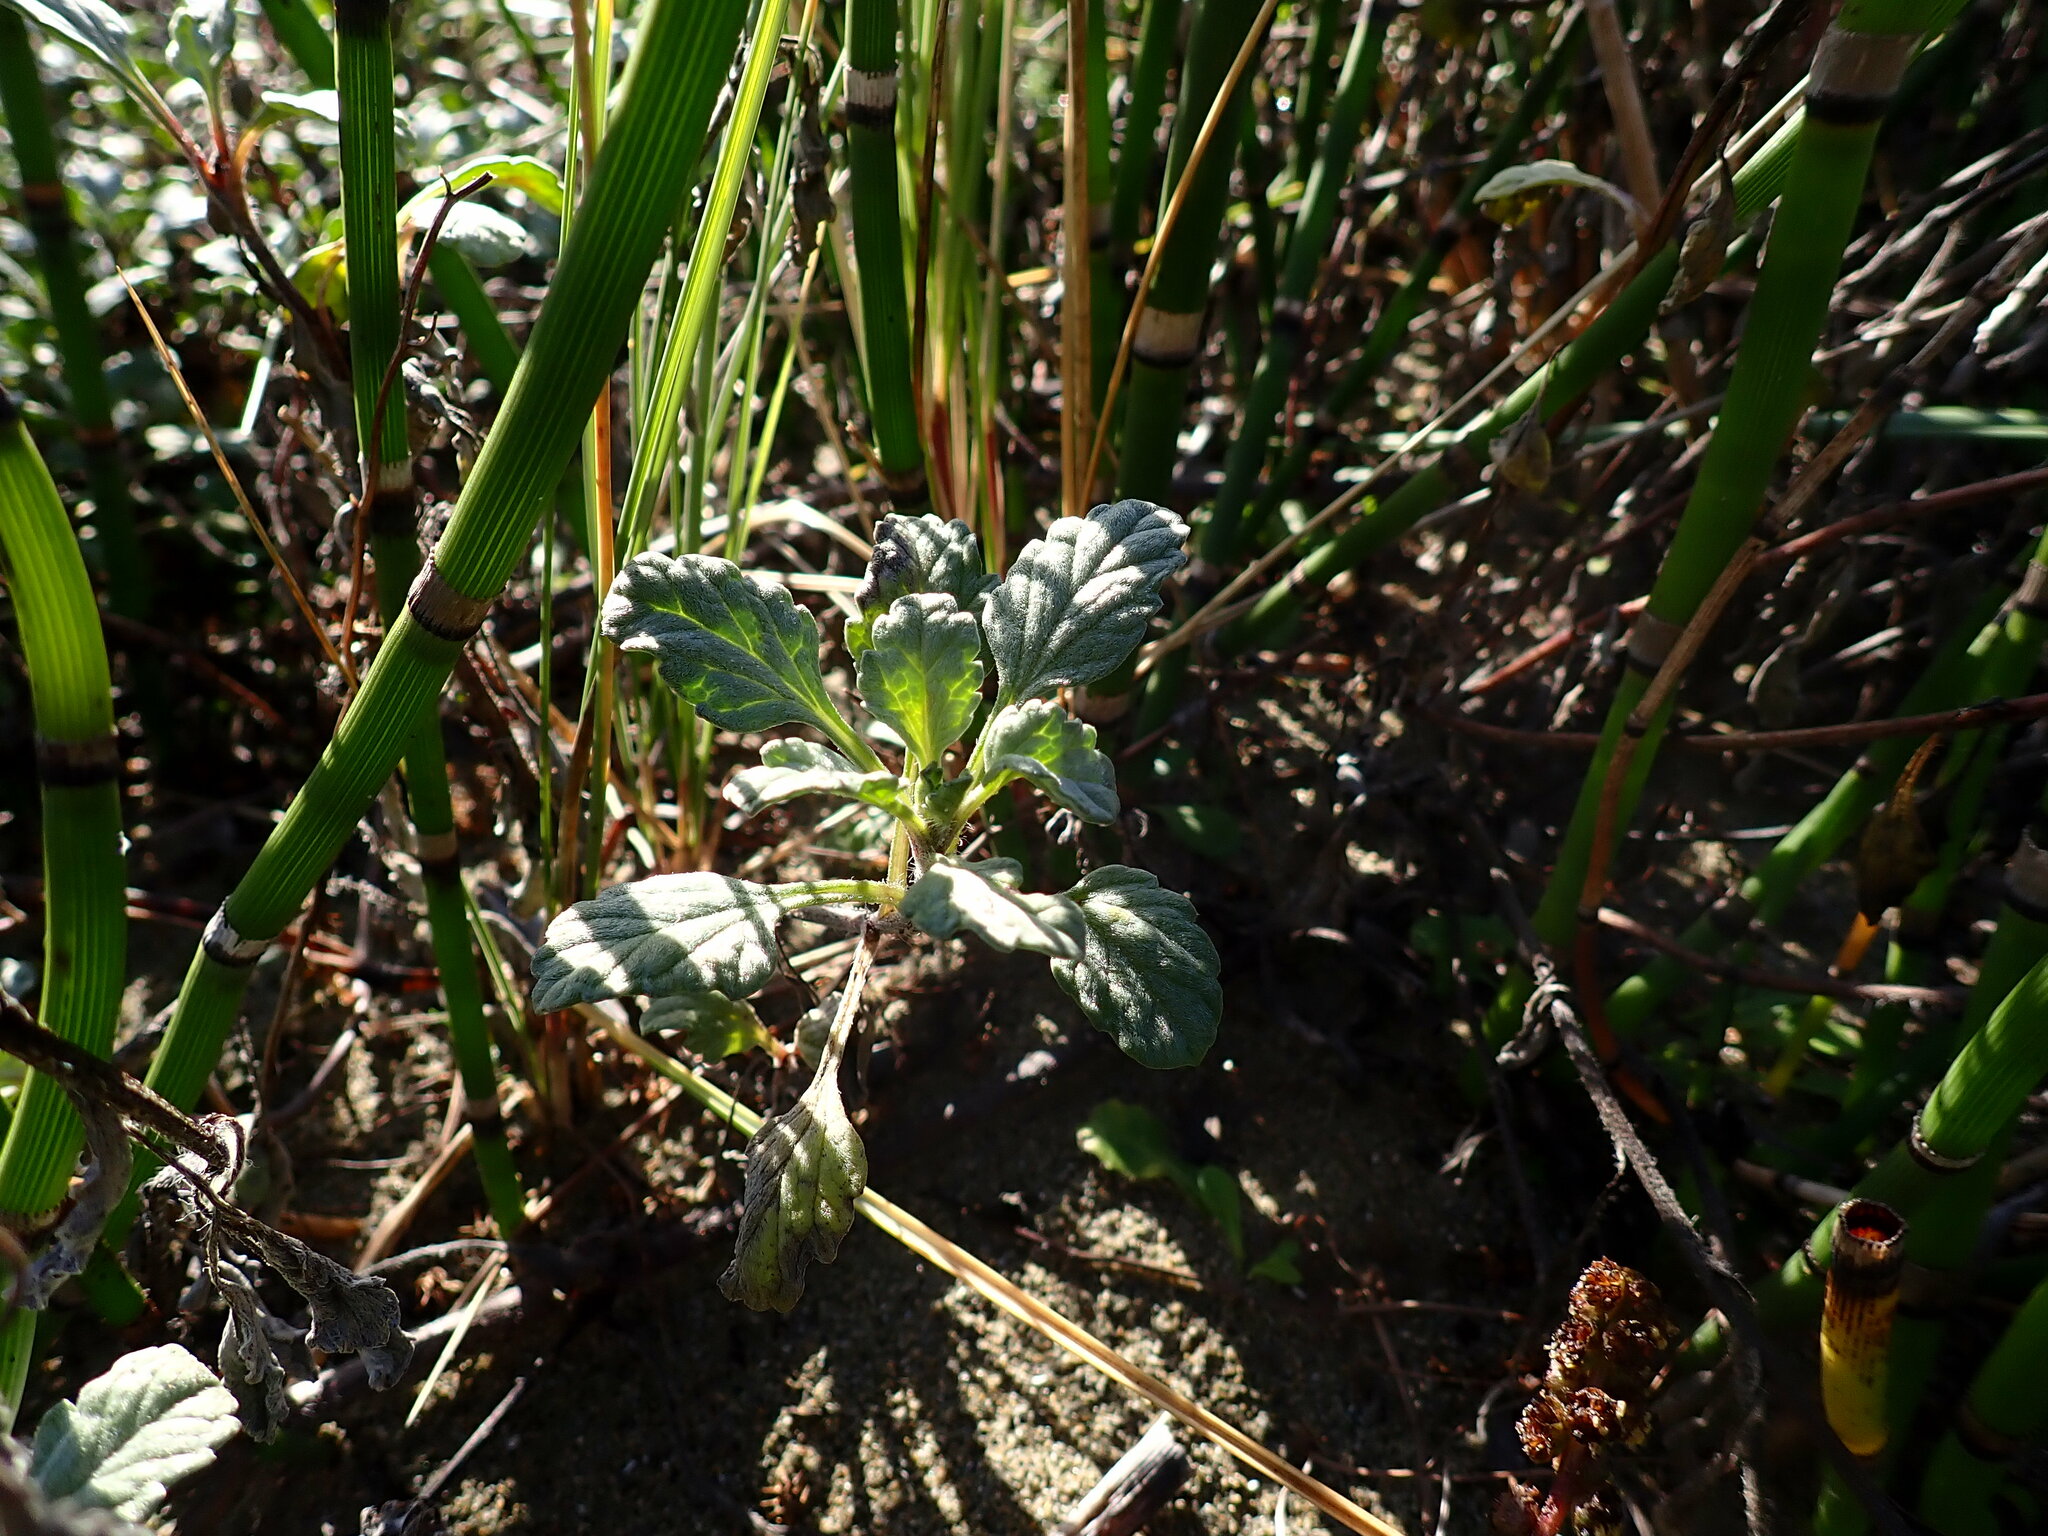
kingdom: Plantae
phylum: Tracheophyta
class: Magnoliopsida
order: Asterales
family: Asteraceae
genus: Ambrosia
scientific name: Ambrosia chamissonis
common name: Beachbur
